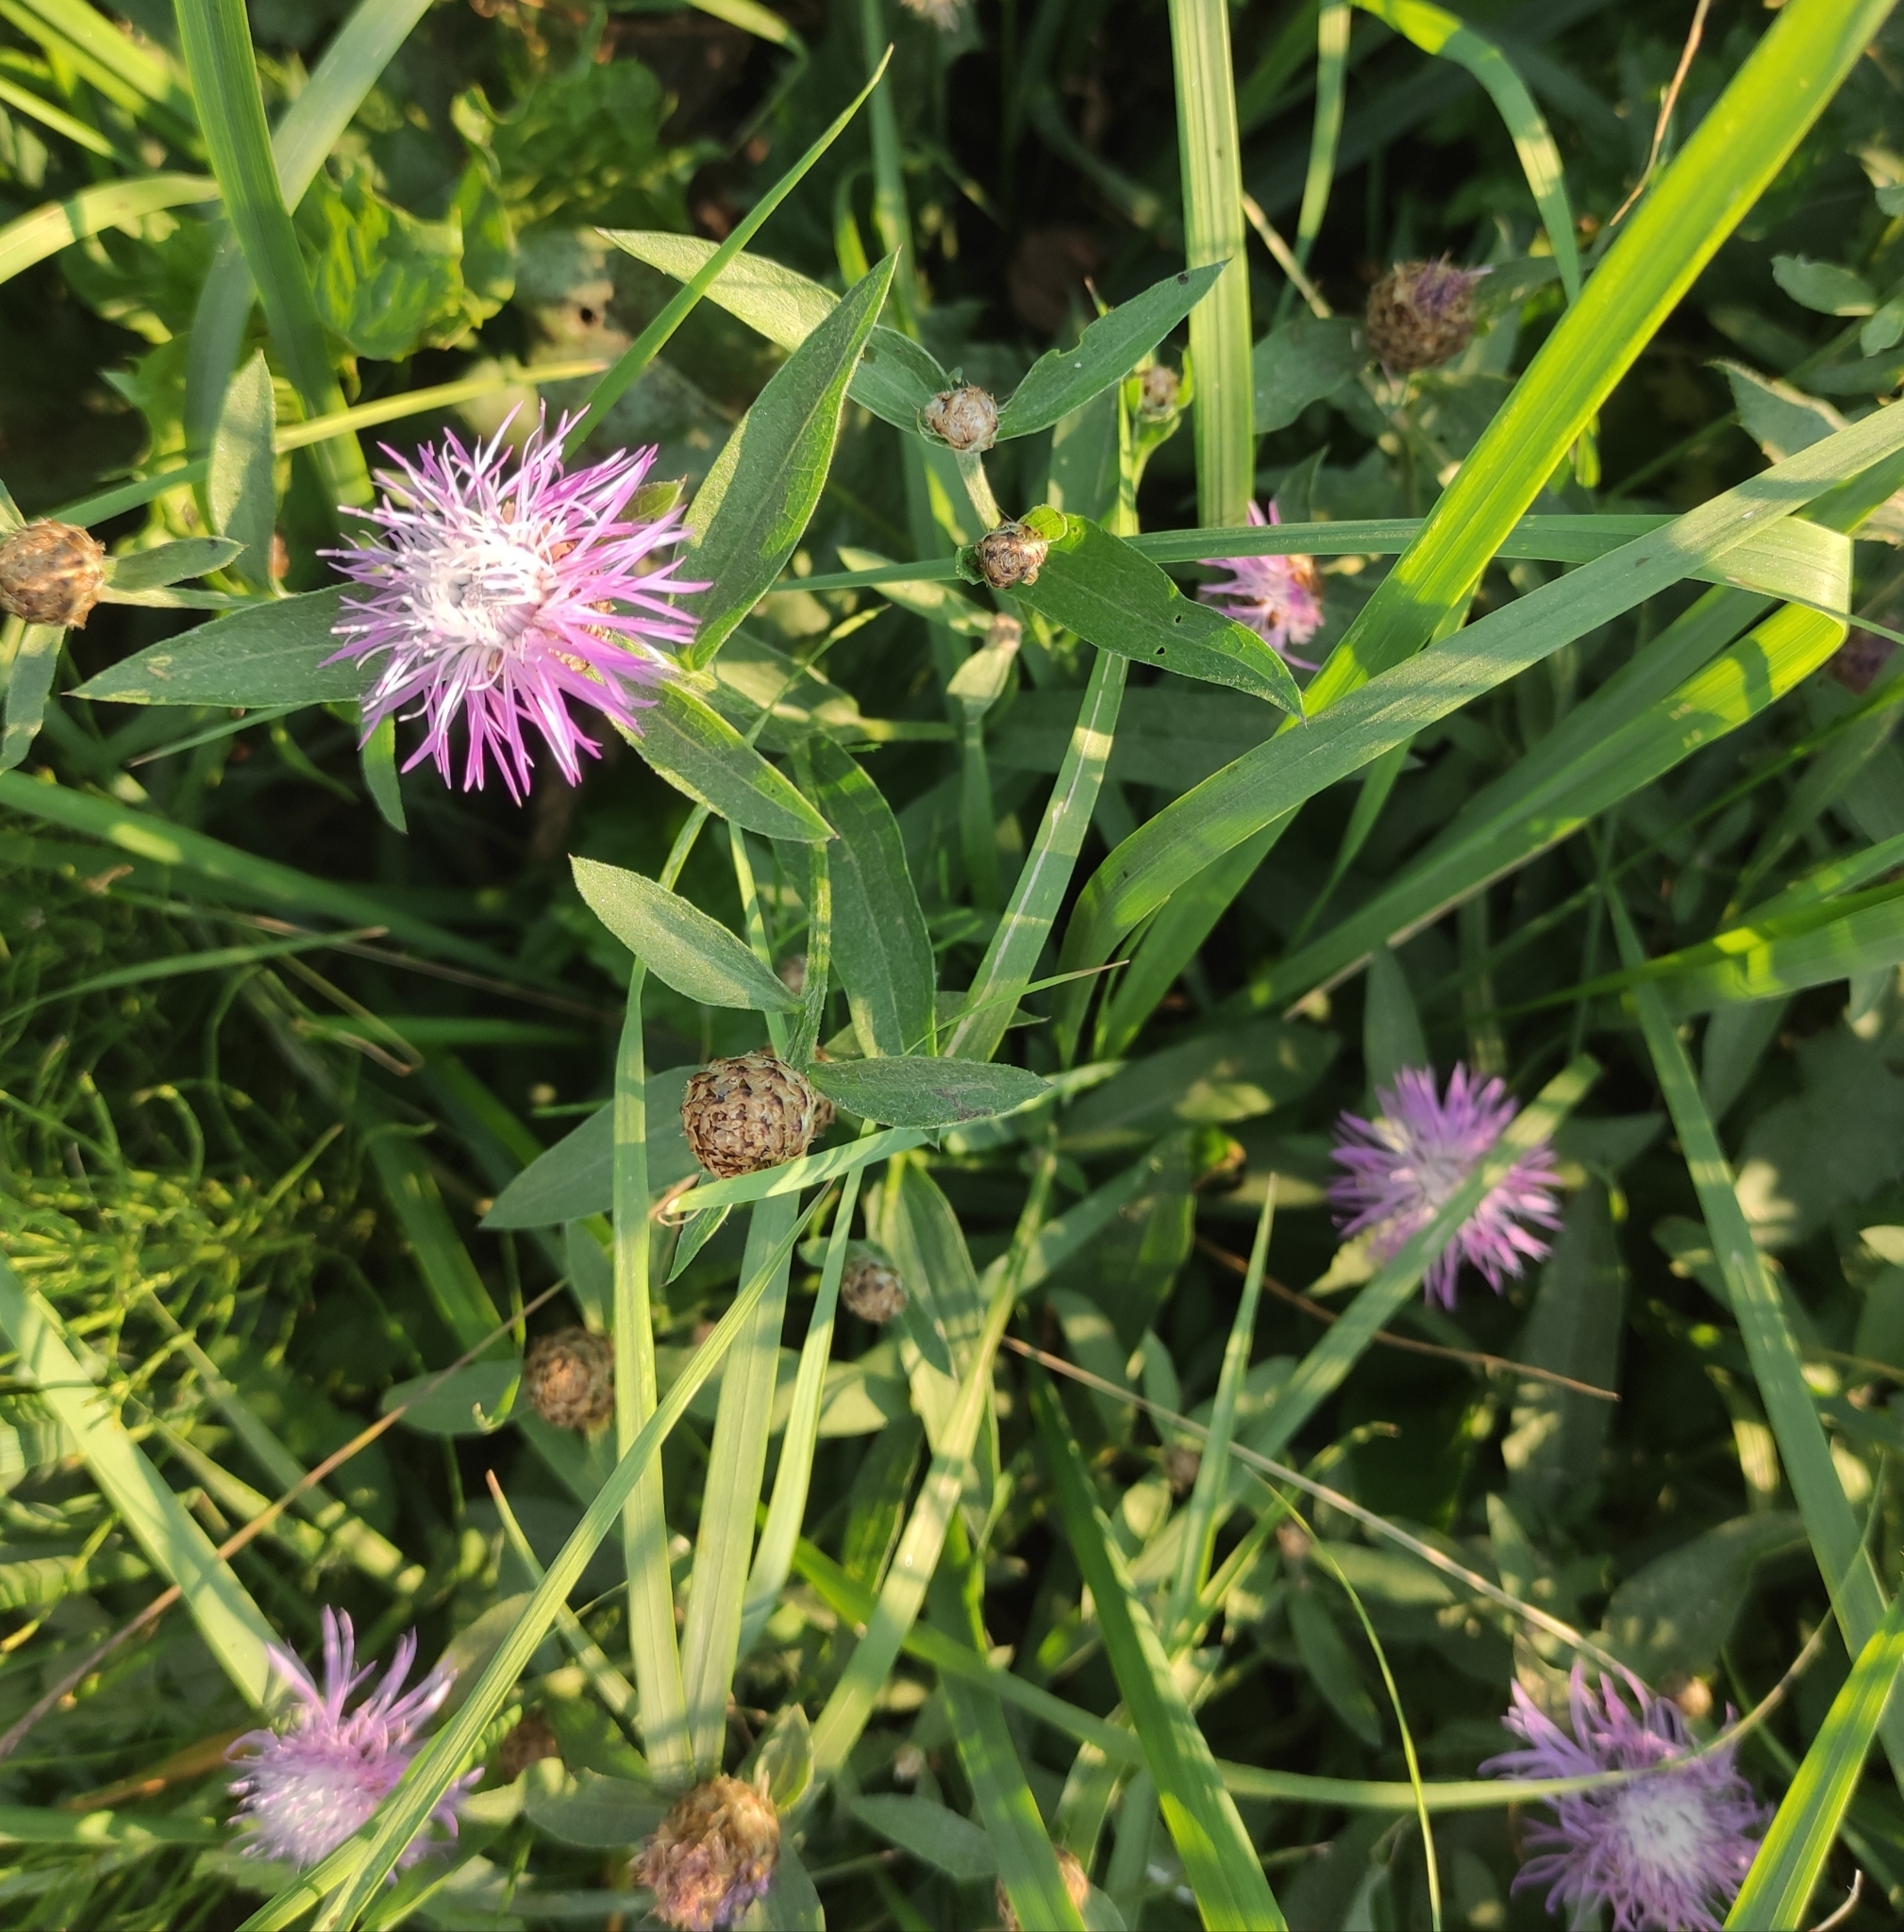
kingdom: Plantae
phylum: Tracheophyta
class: Magnoliopsida
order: Asterales
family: Asteraceae
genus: Centaurea
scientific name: Centaurea jacea
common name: Brown knapweed
